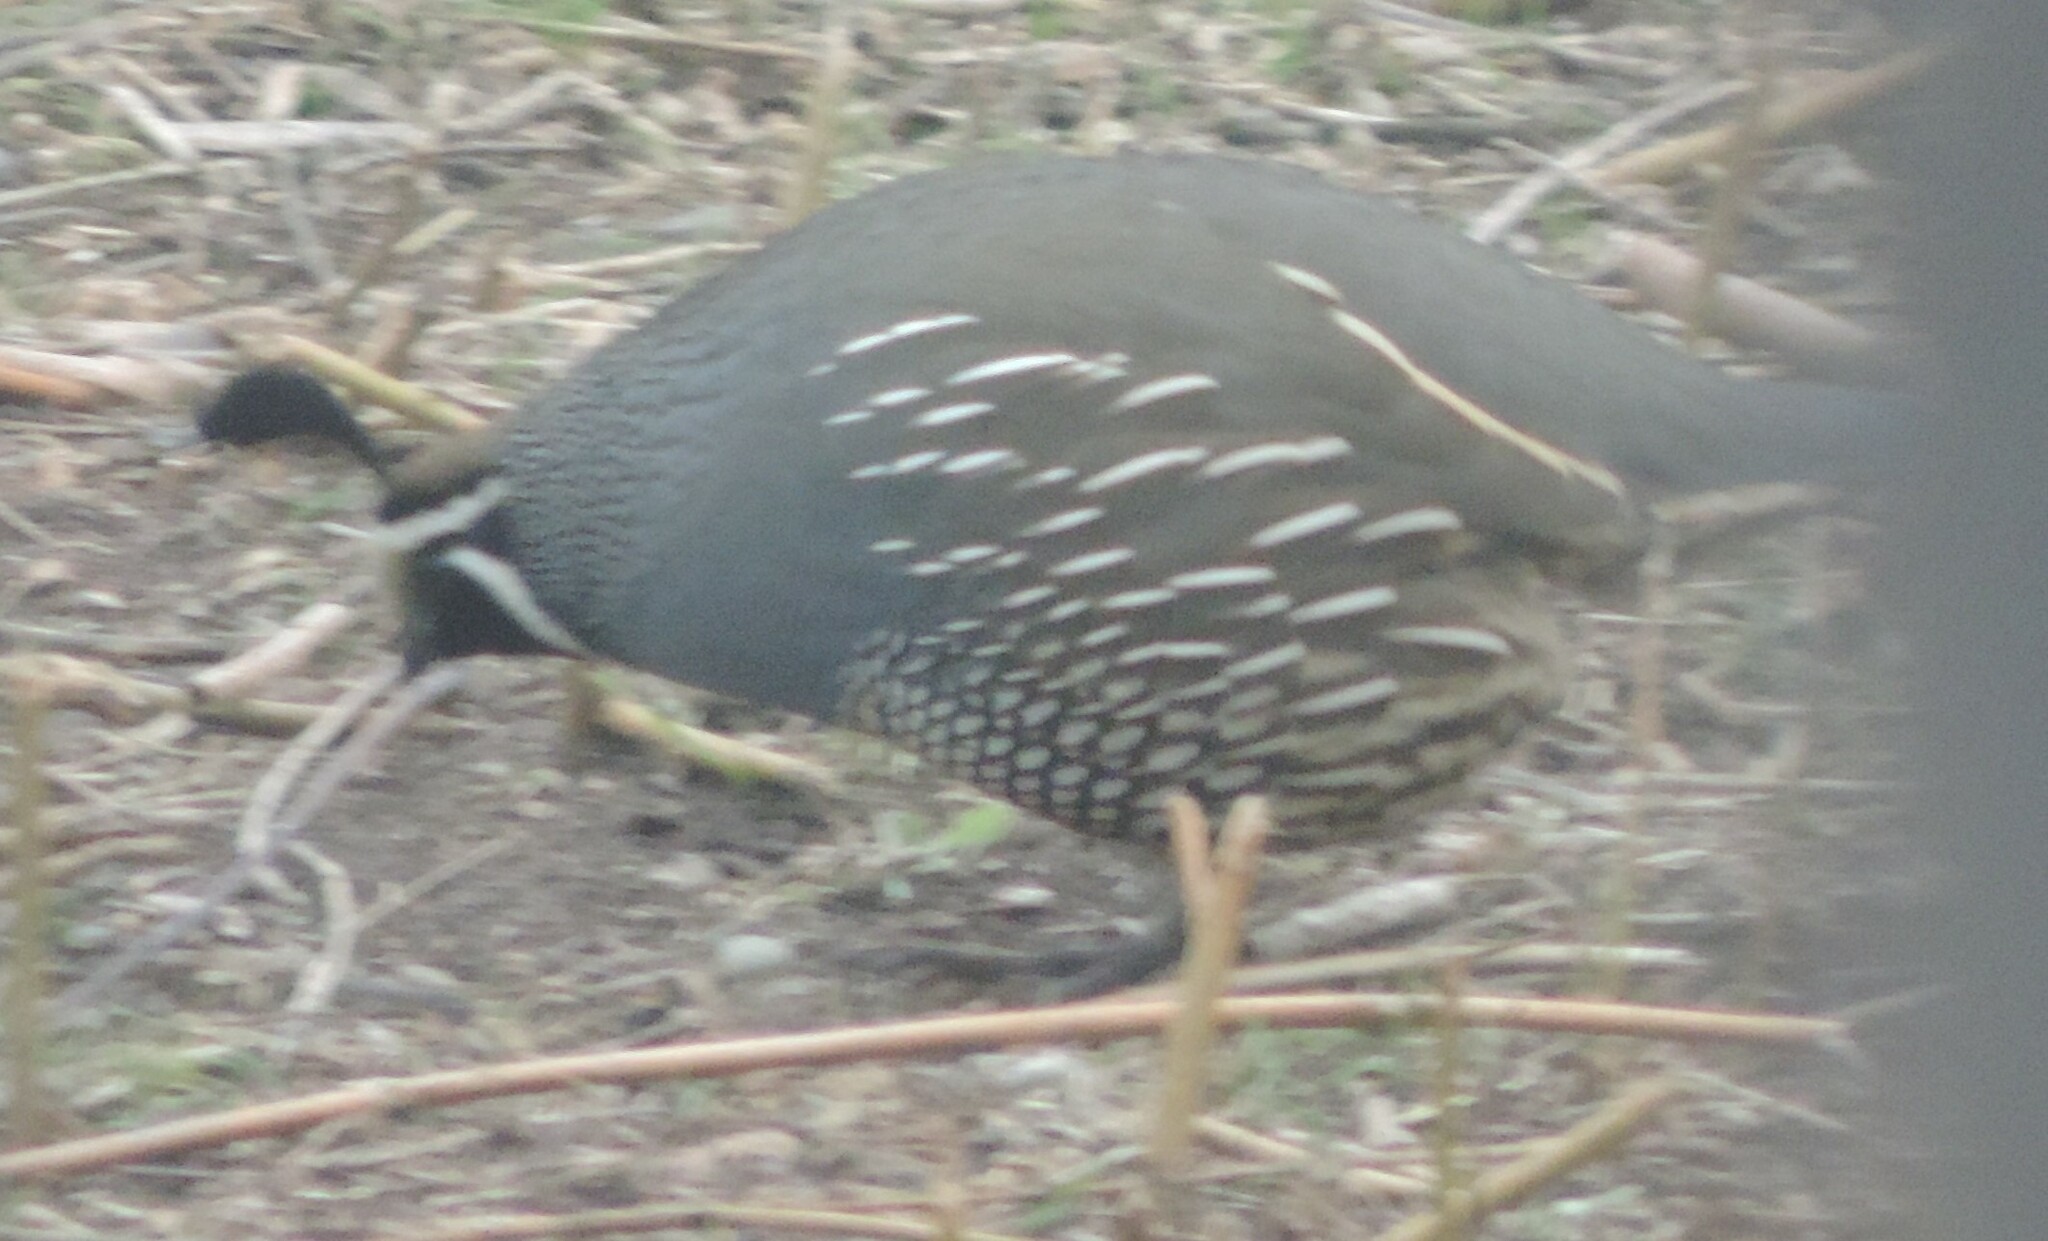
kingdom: Animalia
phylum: Chordata
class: Aves
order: Galliformes
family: Odontophoridae
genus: Callipepla
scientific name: Callipepla californica
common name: California quail
